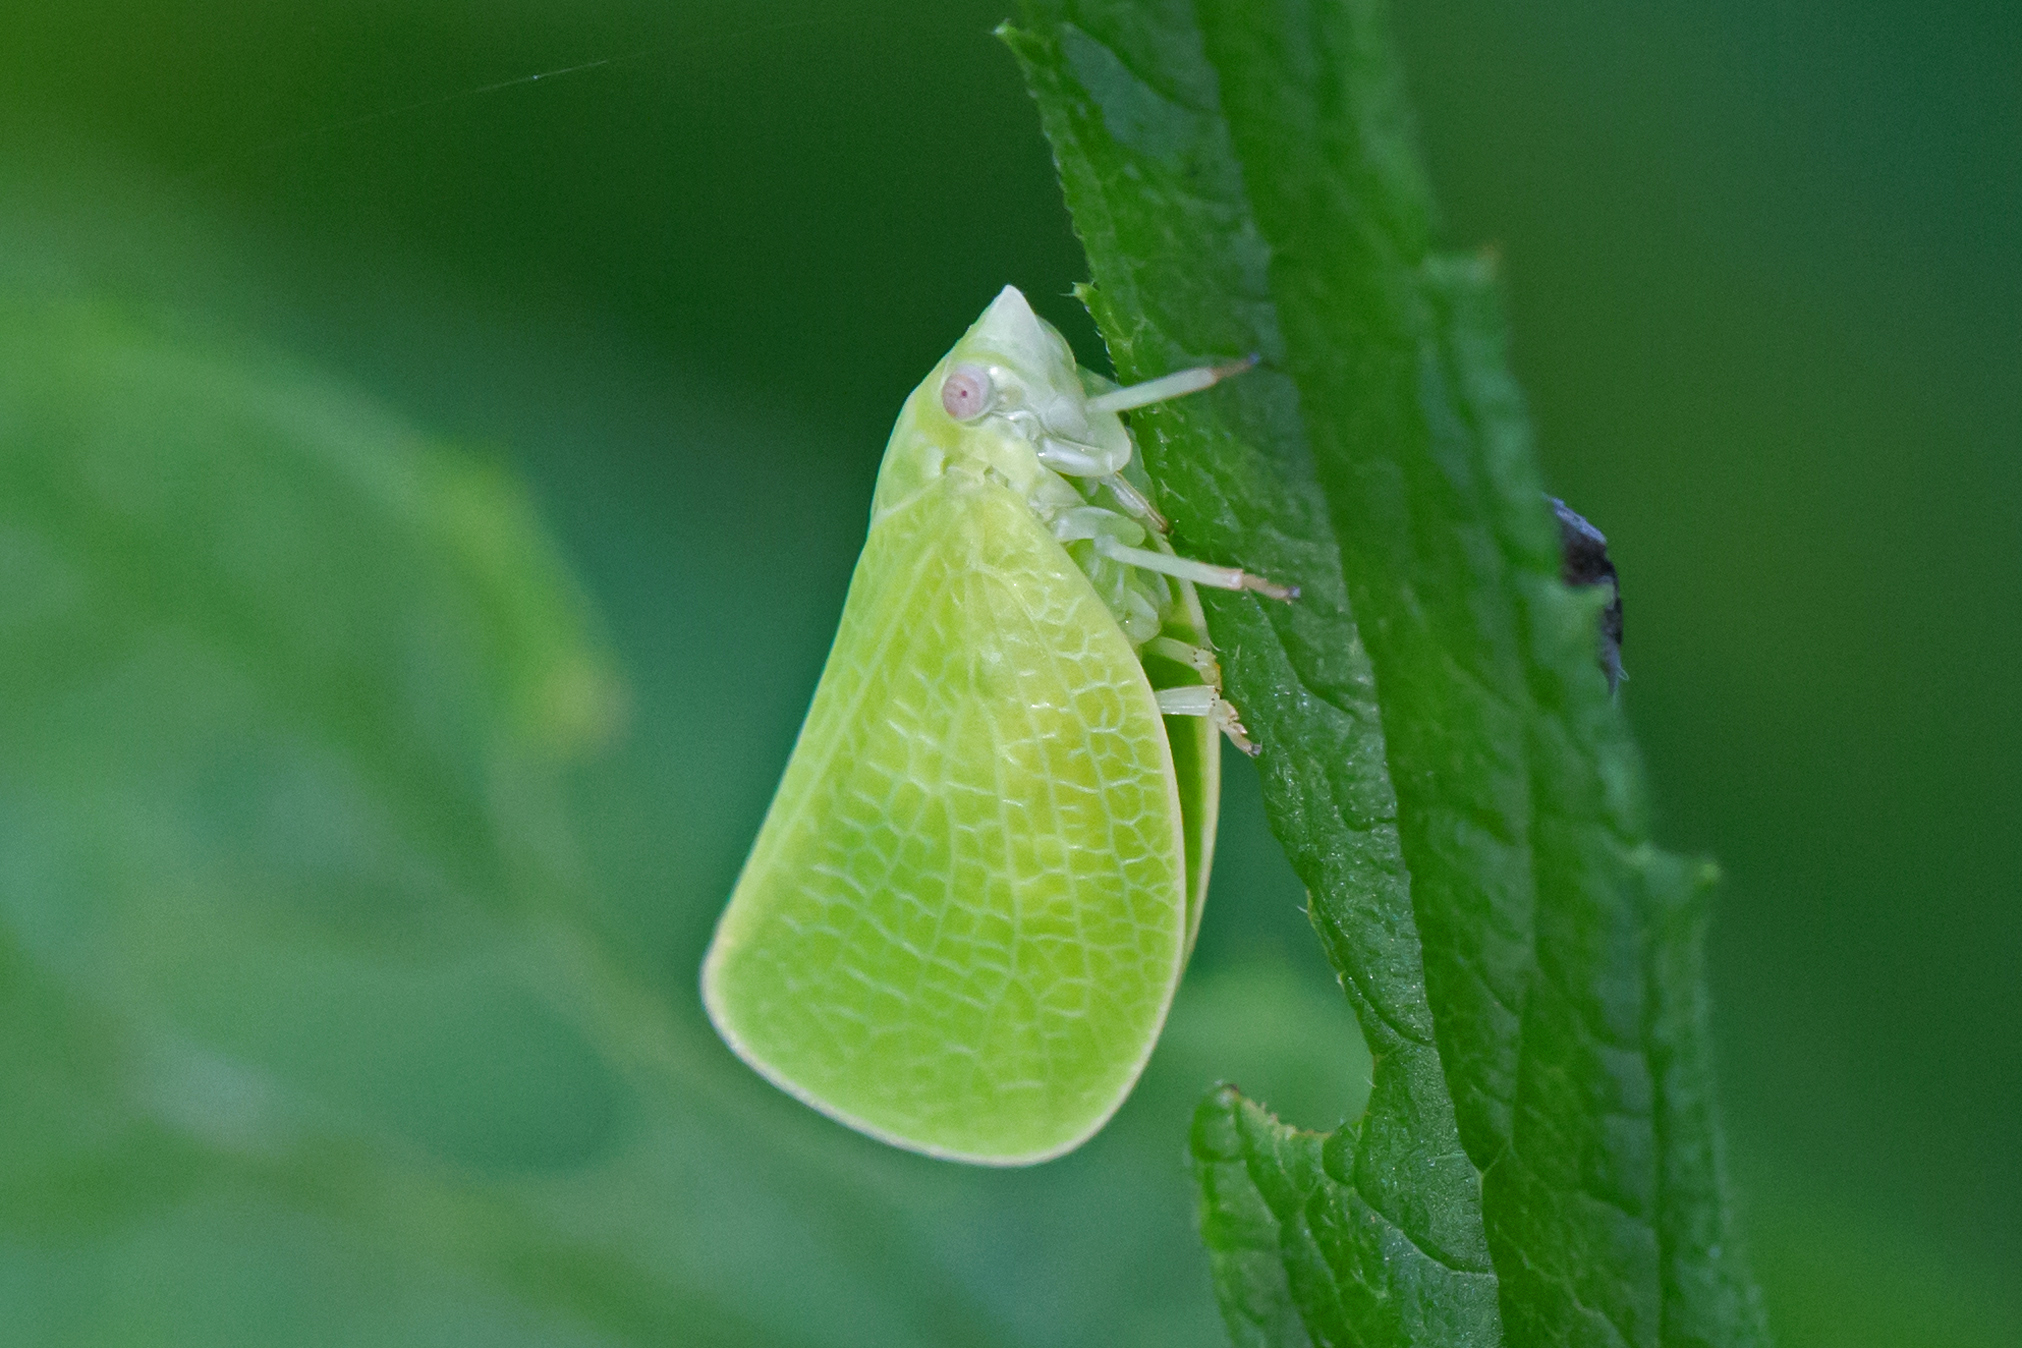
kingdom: Animalia
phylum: Arthropoda
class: Insecta
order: Hemiptera
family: Acanaloniidae
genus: Acanalonia
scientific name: Acanalonia conica
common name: Green cone-headed planthopper
